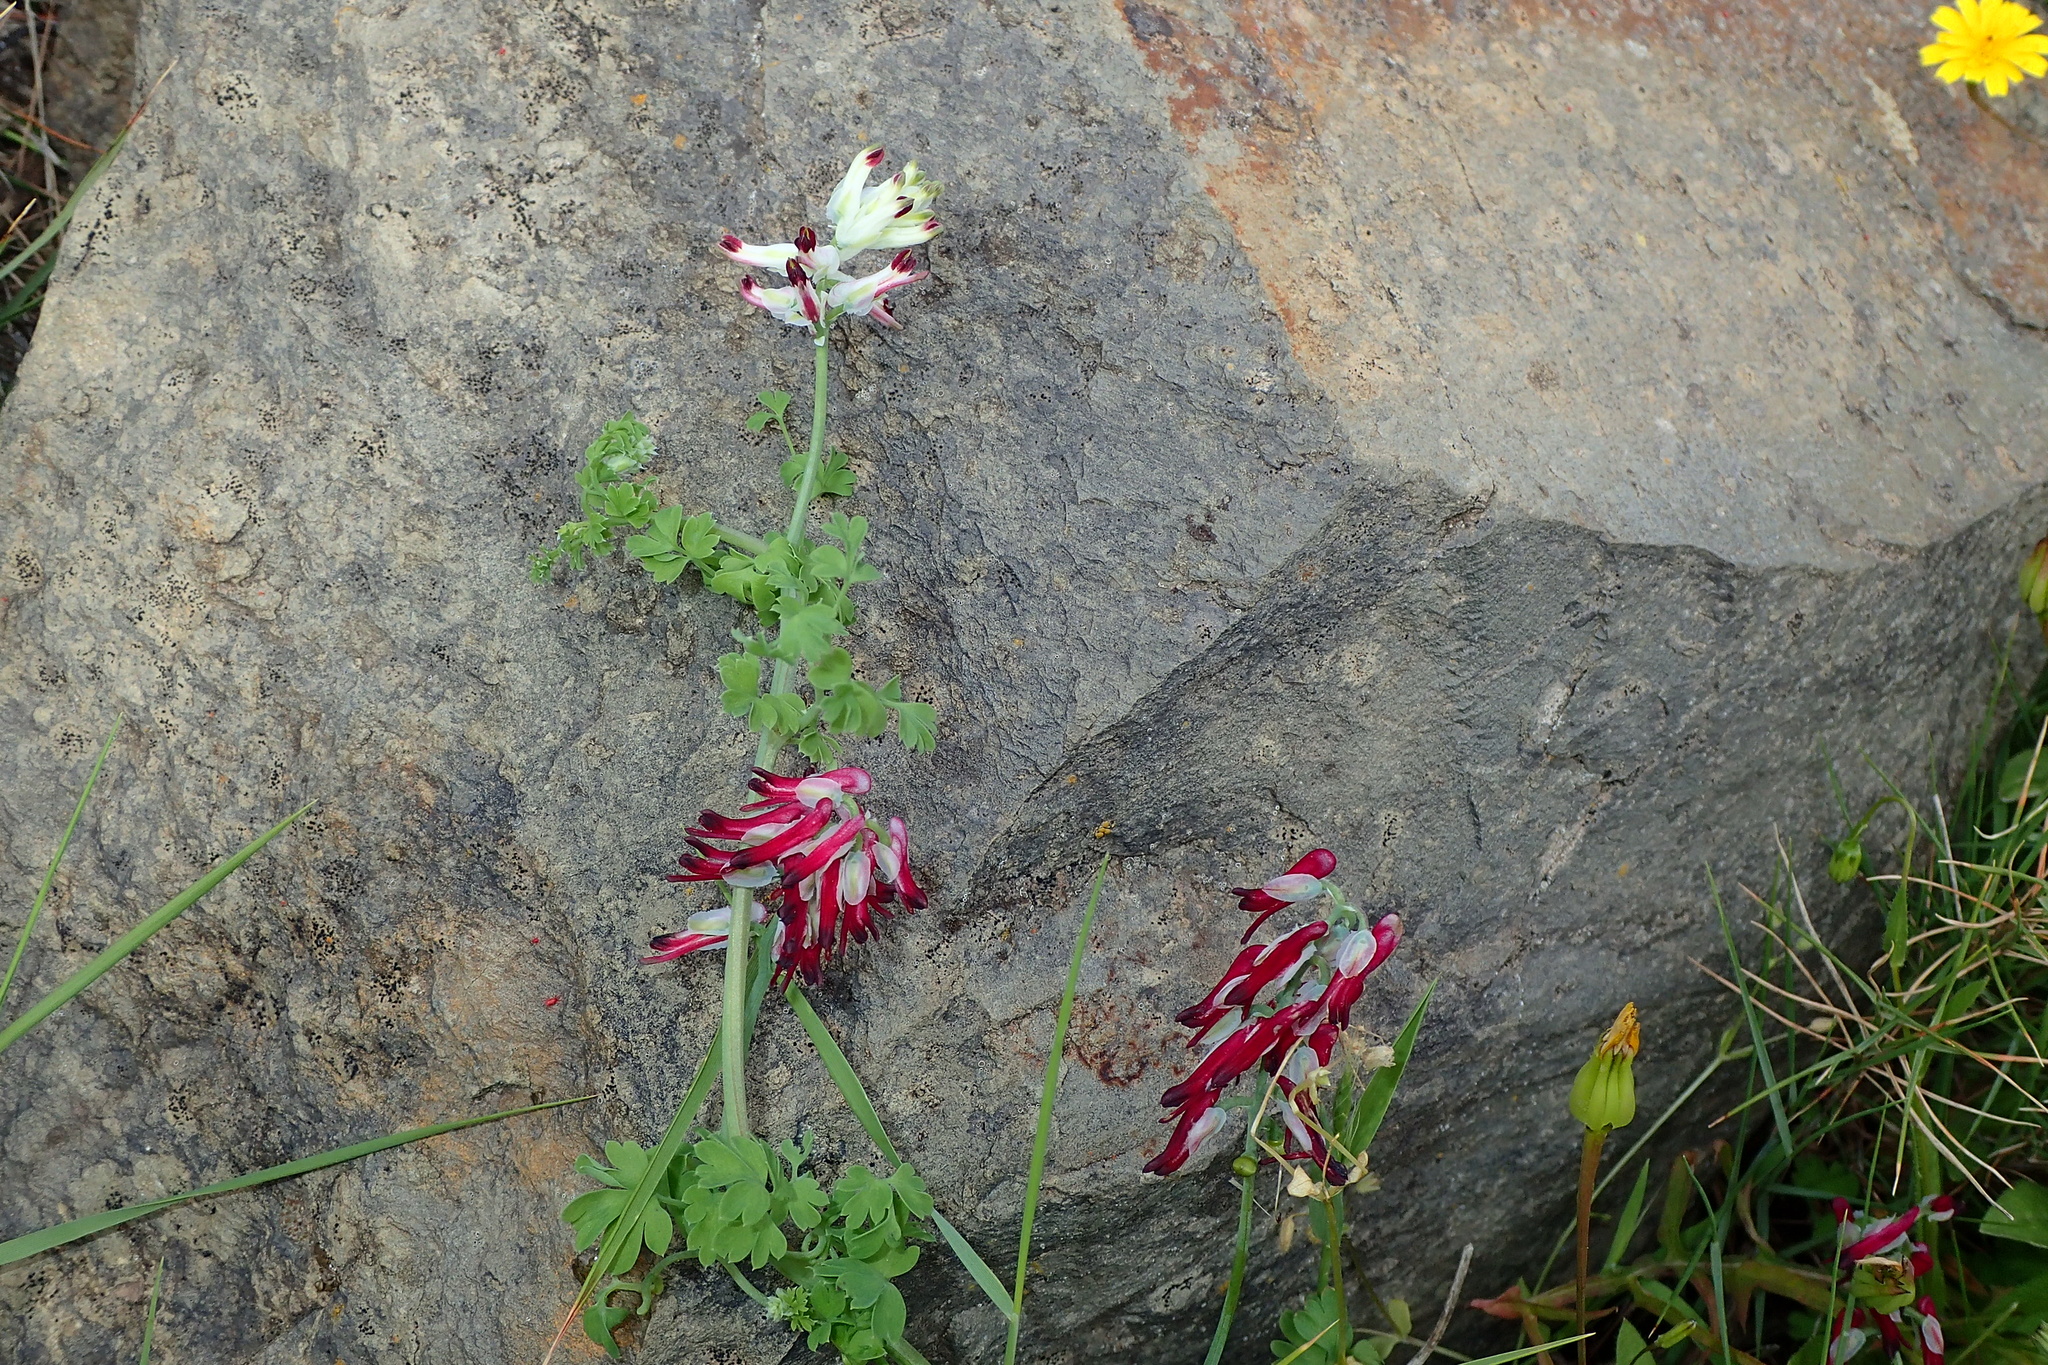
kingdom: Plantae
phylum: Tracheophyta
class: Magnoliopsida
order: Ranunculales
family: Papaveraceae
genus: Fumaria
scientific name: Fumaria capreolata
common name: White ramping-fumitory
